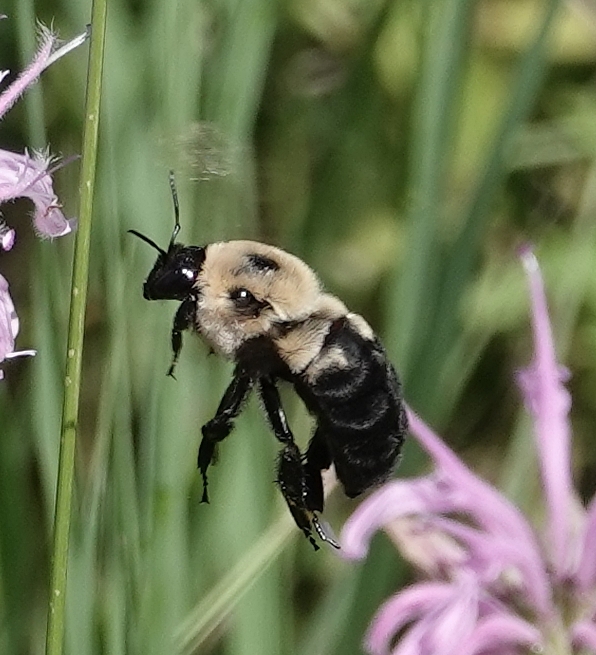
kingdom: Animalia
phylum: Arthropoda
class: Insecta
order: Hymenoptera
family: Apidae
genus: Bombus
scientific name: Bombus griseocollis
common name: Brown-belted bumble bee
